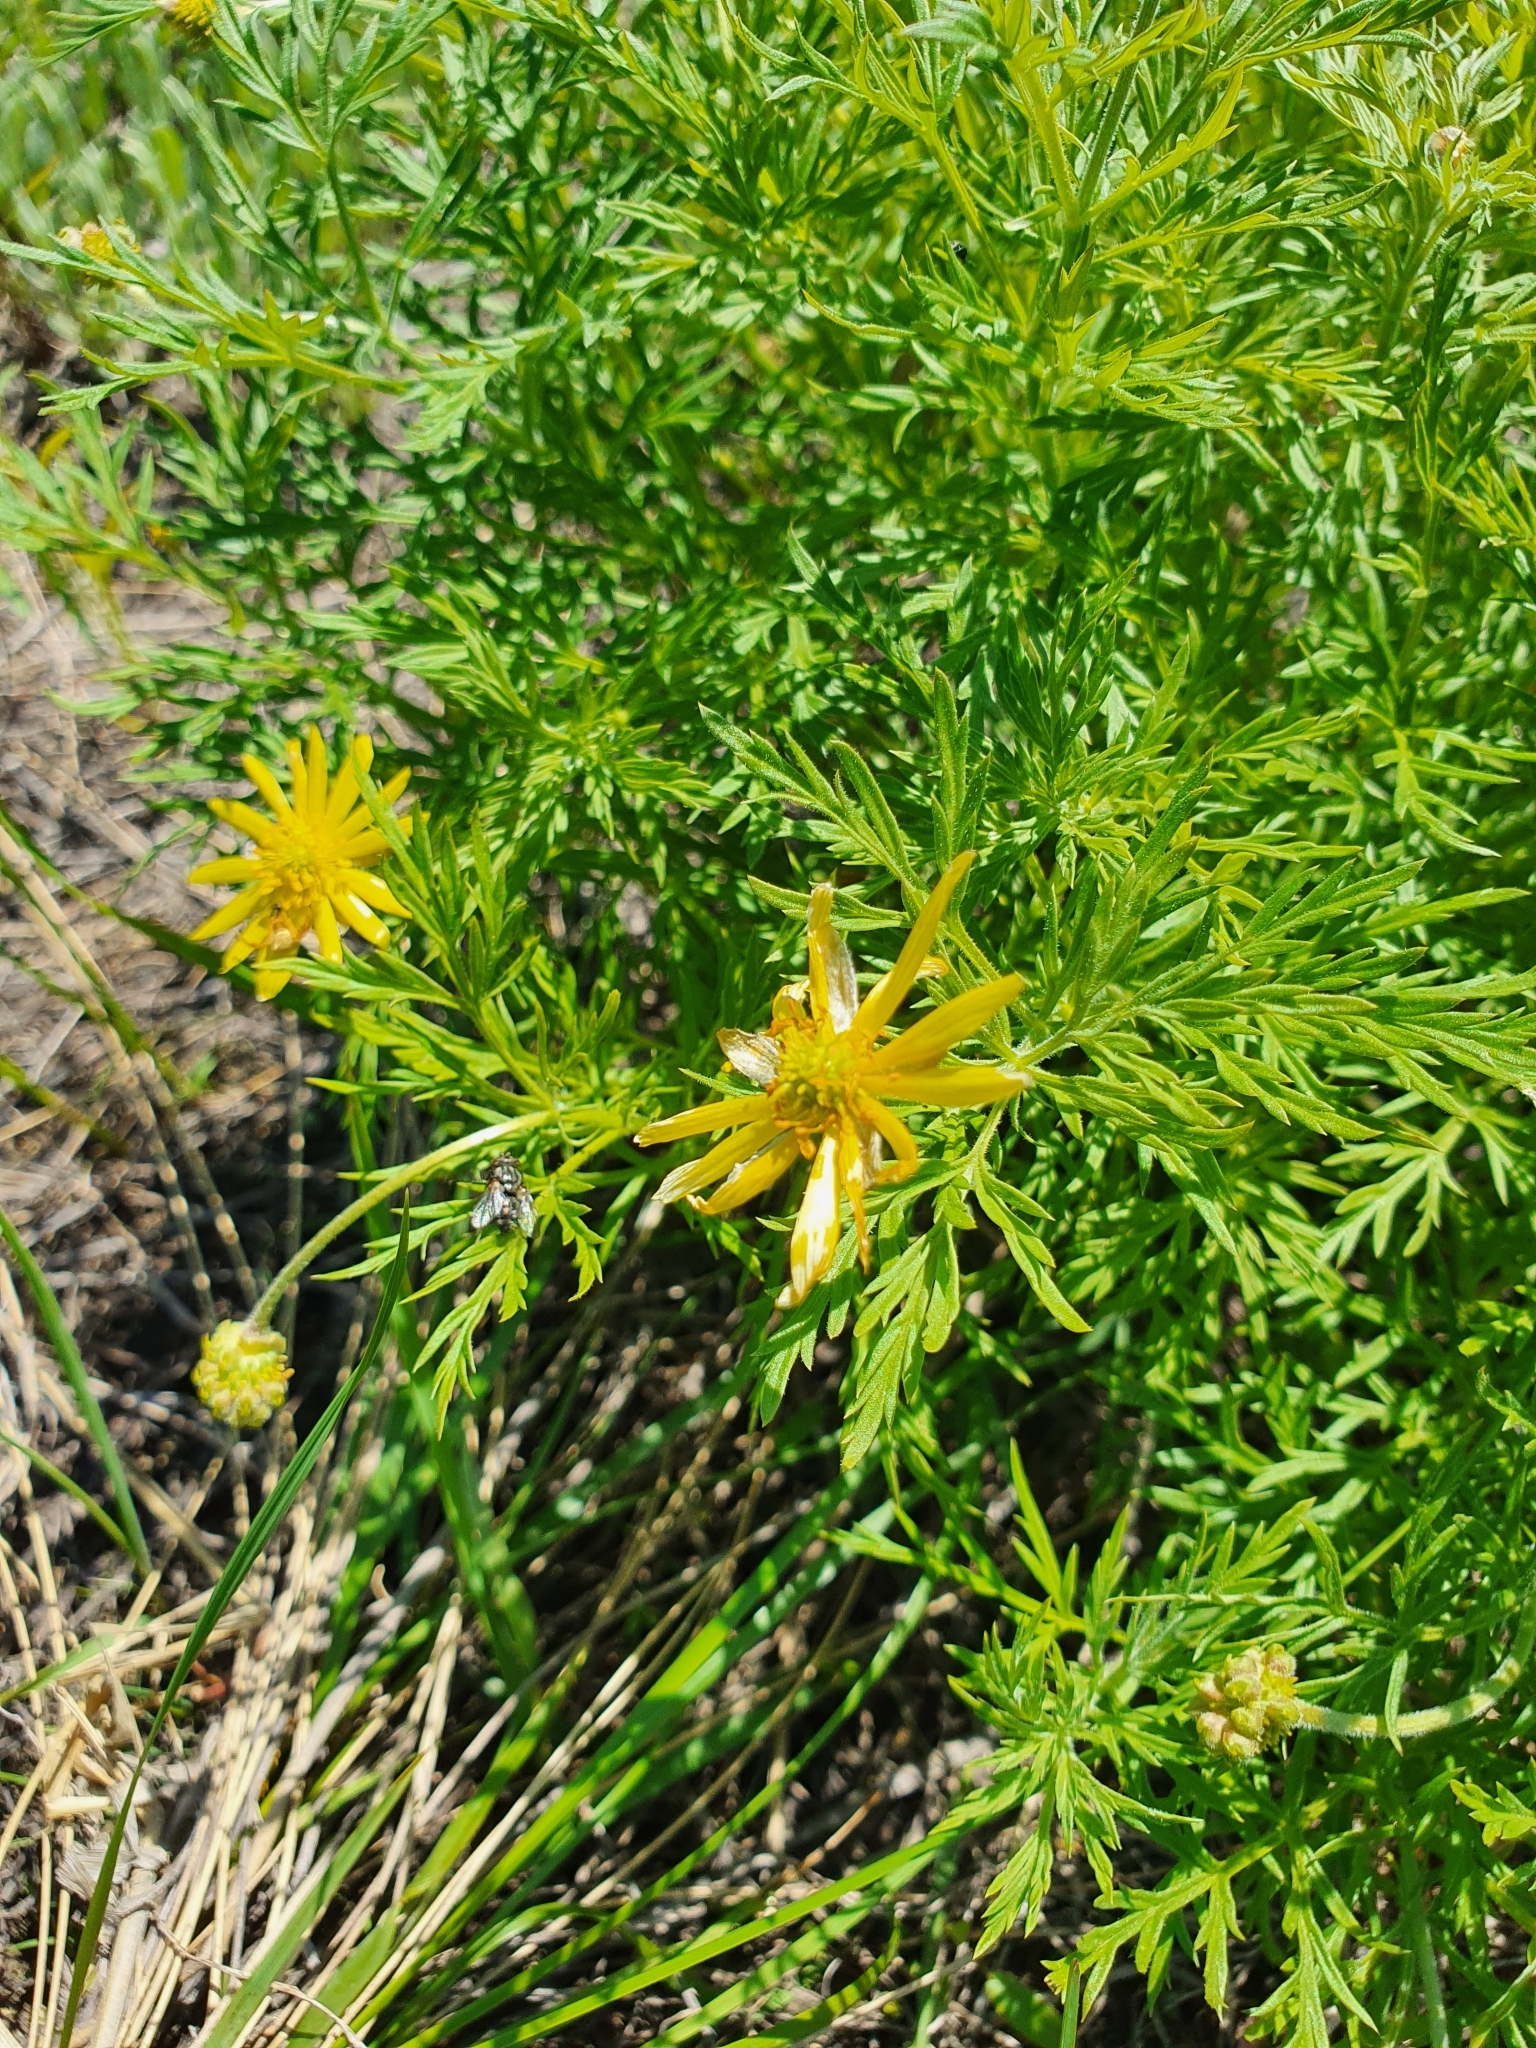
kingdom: Plantae
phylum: Tracheophyta
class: Magnoliopsida
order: Ranunculales
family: Ranunculaceae
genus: Adonis
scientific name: Adonis volgensis
